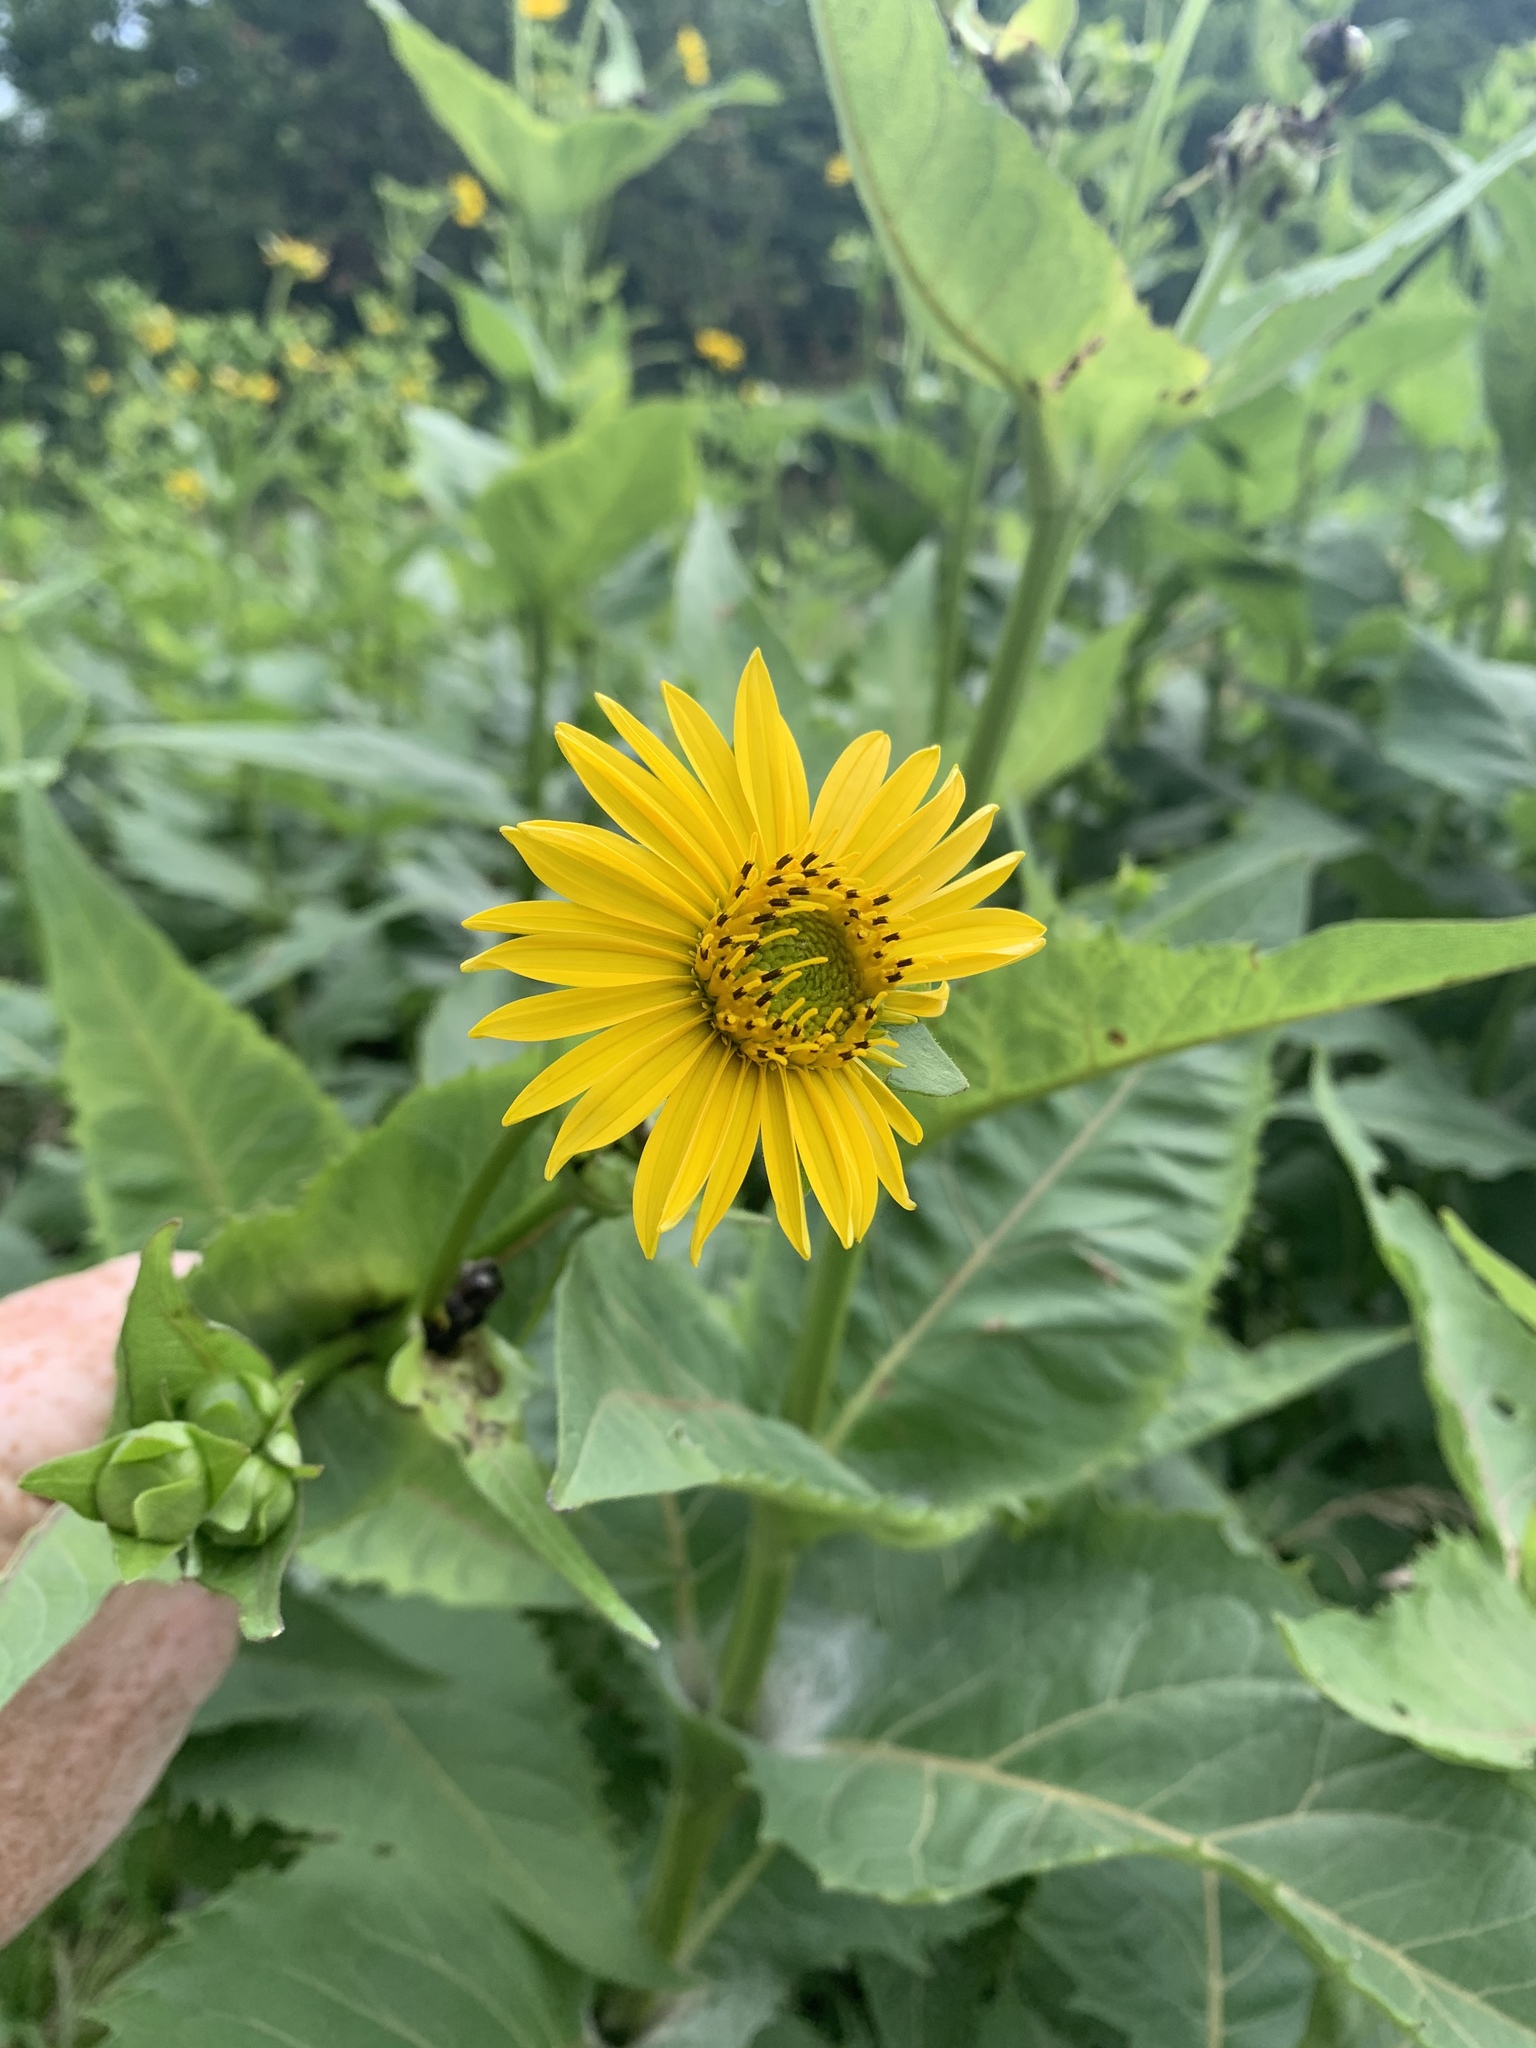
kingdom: Plantae
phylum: Tracheophyta
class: Magnoliopsida
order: Asterales
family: Asteraceae
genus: Silphium
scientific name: Silphium perfoliatum
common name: Cup-plant
